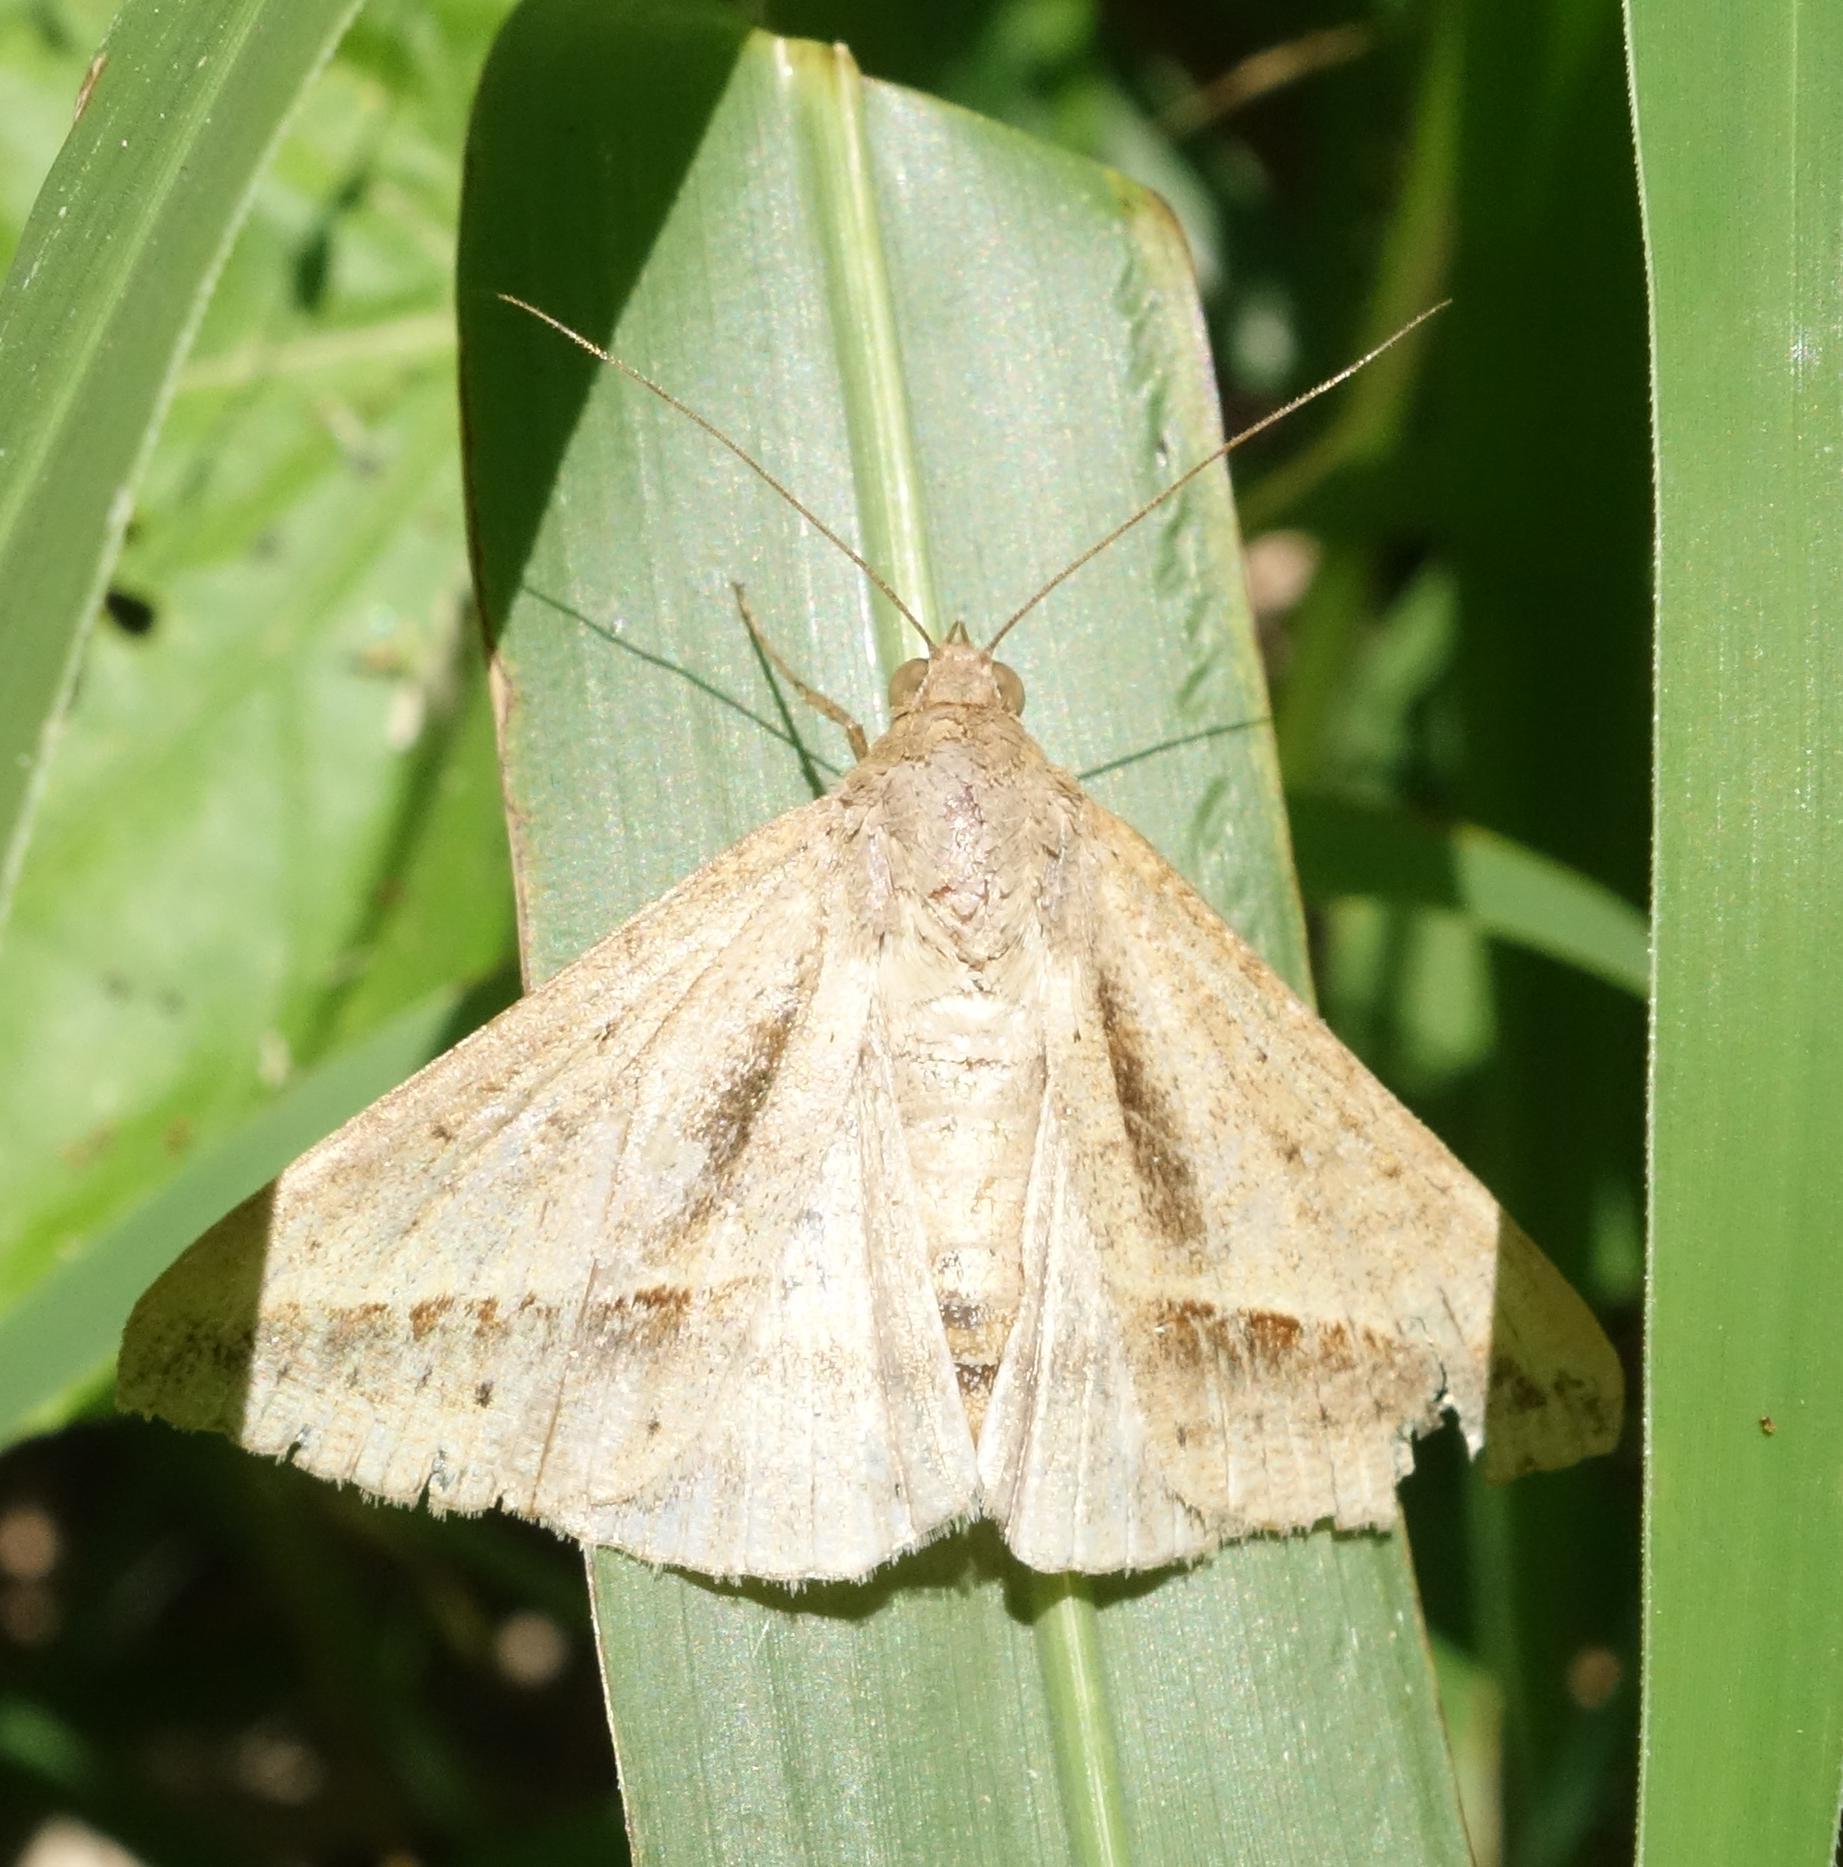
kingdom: Animalia
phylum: Arthropoda
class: Insecta
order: Lepidoptera
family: Erebidae
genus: Mocis
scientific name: Mocis frugalis
